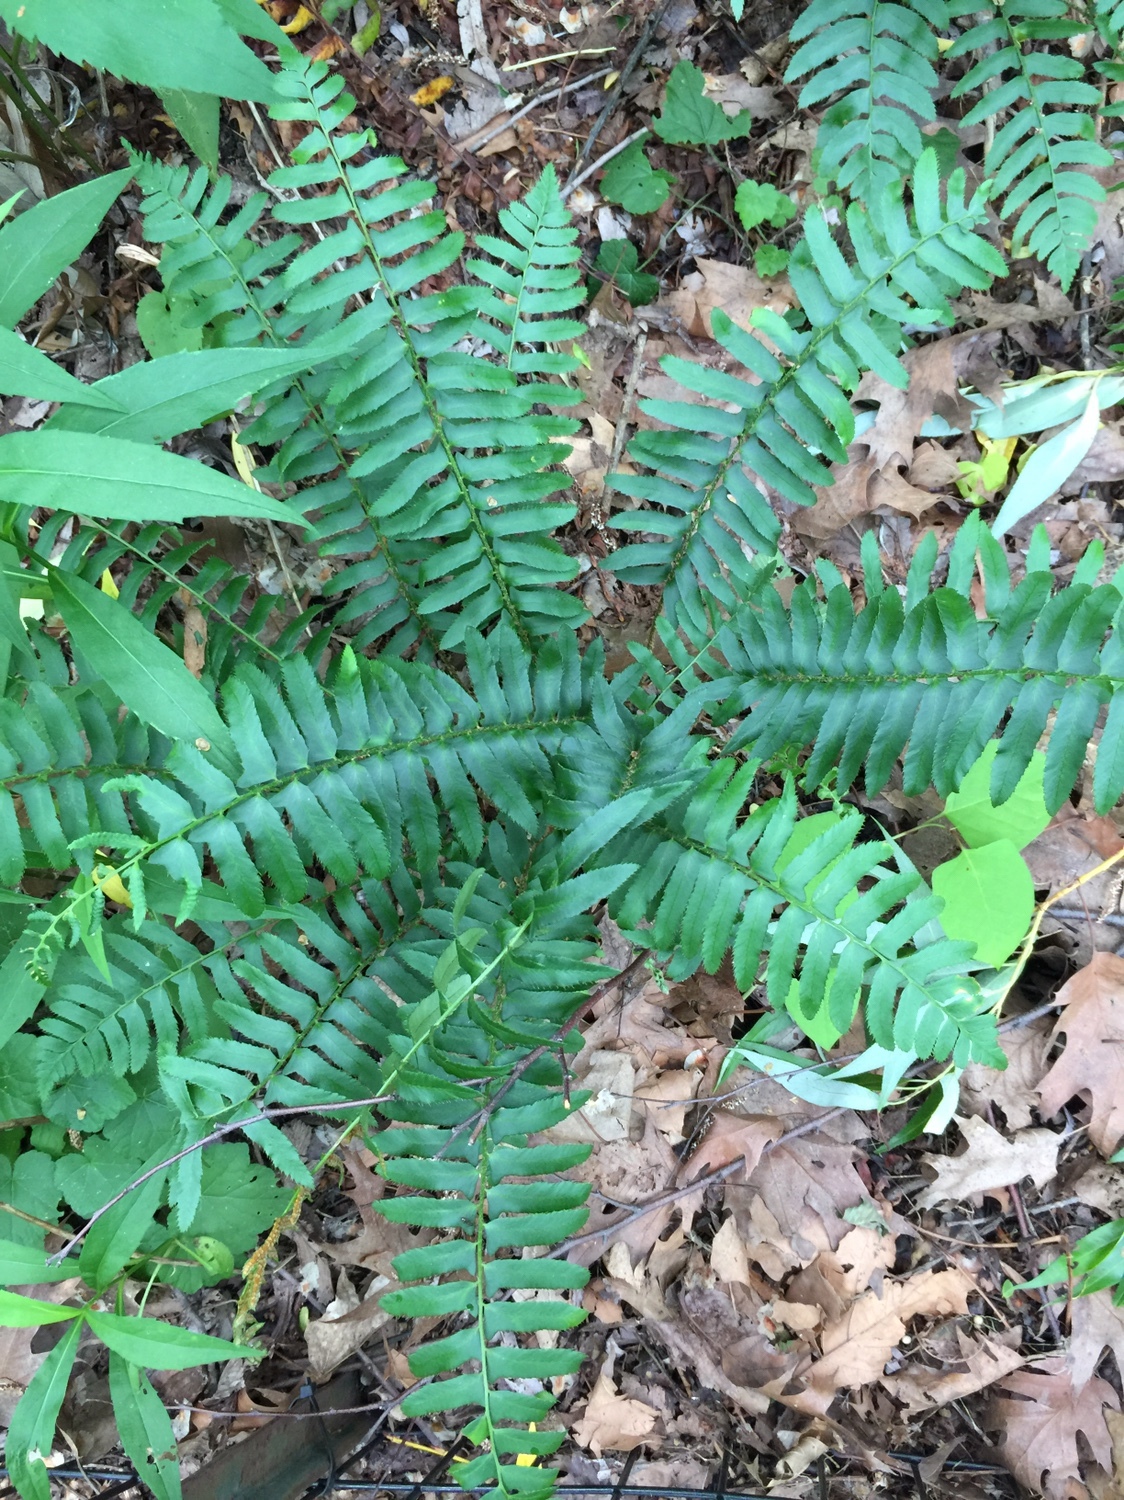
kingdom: Plantae
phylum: Tracheophyta
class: Polypodiopsida
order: Polypodiales
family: Dryopteridaceae
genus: Polystichum
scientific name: Polystichum acrostichoides
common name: Christmas fern
